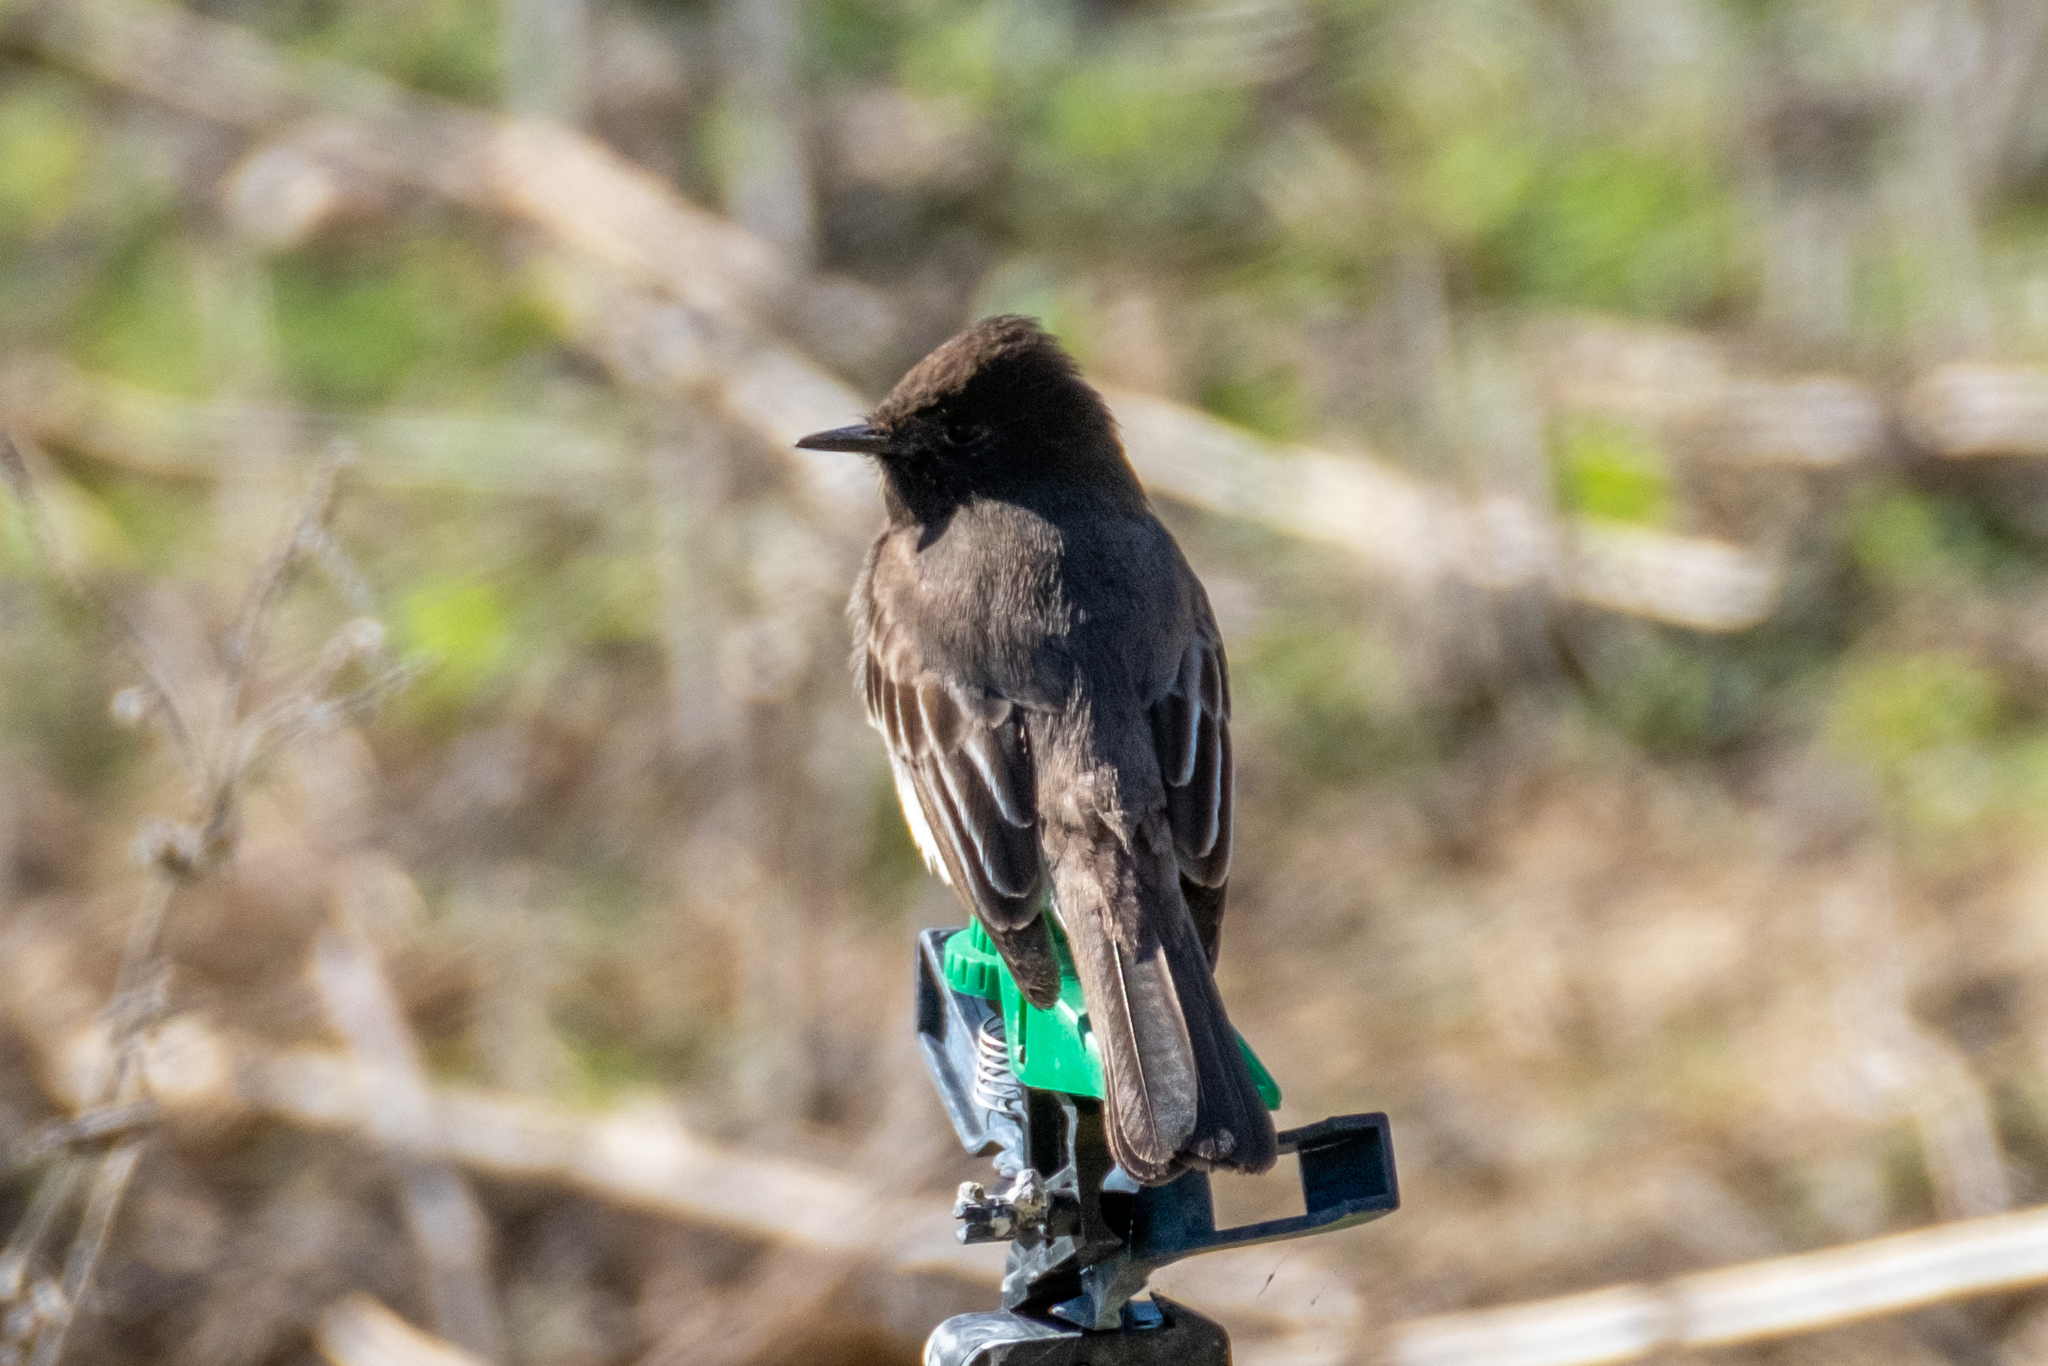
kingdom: Animalia
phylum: Chordata
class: Aves
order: Passeriformes
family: Tyrannidae
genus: Sayornis
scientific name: Sayornis nigricans
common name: Black phoebe
